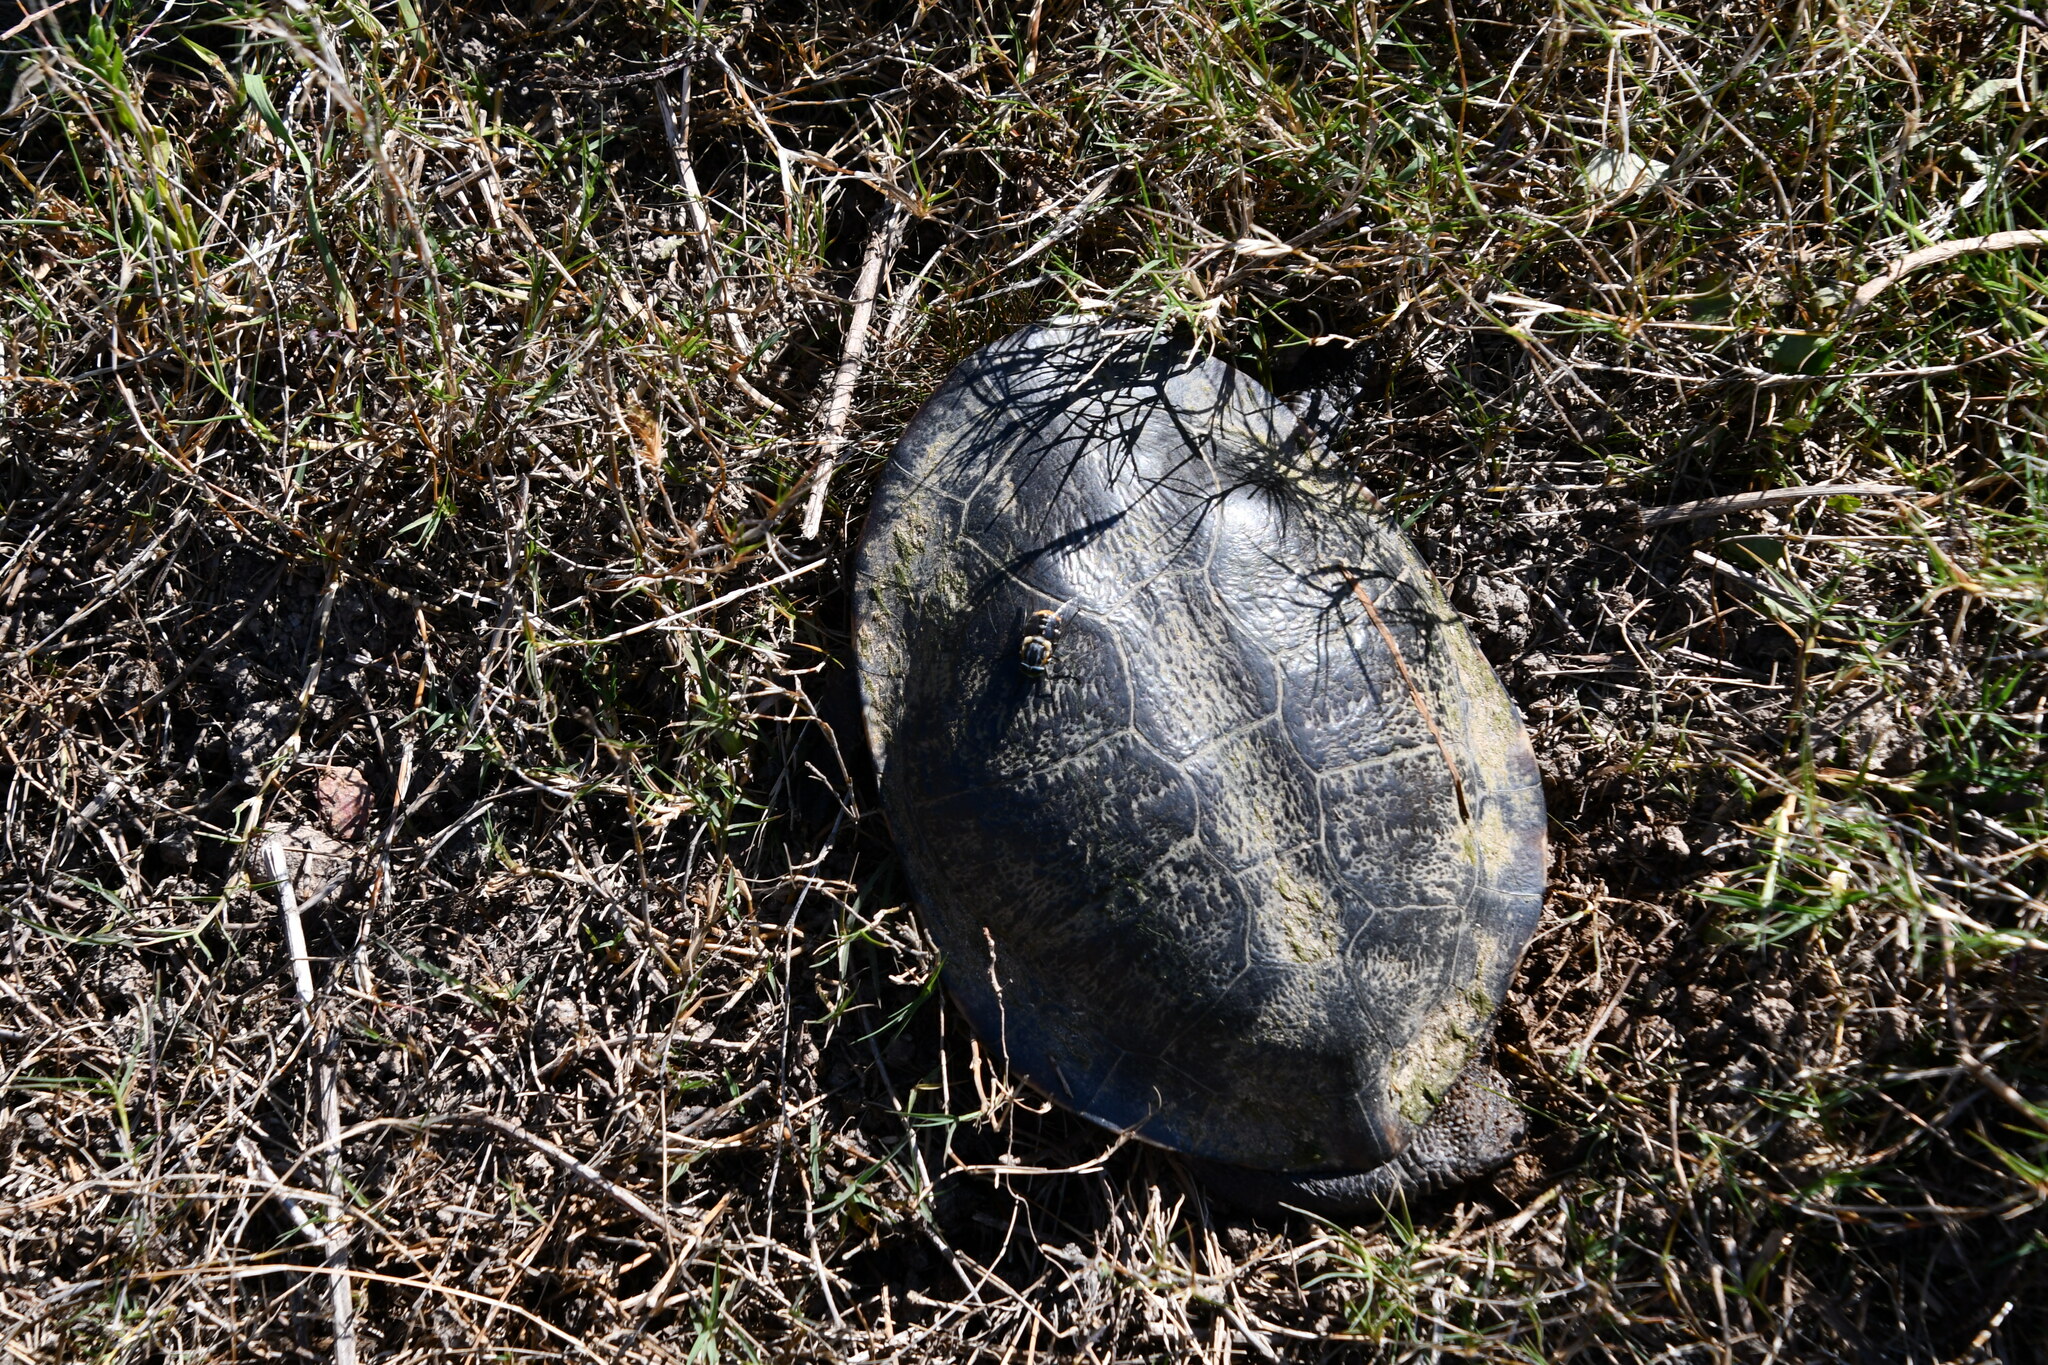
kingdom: Animalia
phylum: Chordata
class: Testudines
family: Chelidae
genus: Chelodina
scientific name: Chelodina longicollis
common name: Eastern snake-necked turtle
